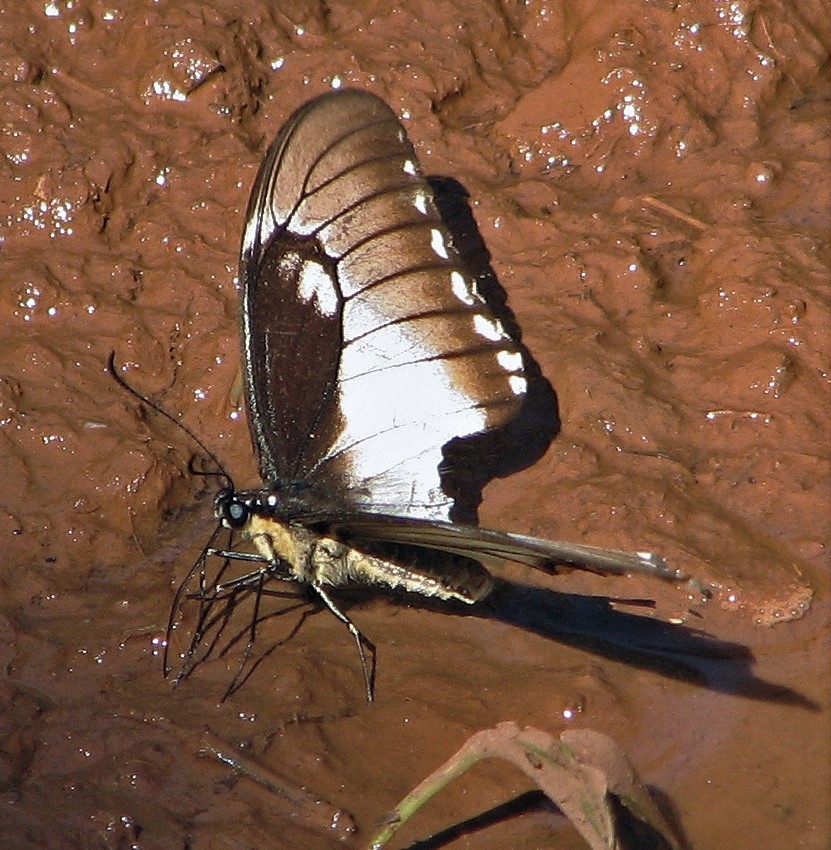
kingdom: Animalia
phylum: Arthropoda
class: Insecta
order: Lepidoptera
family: Papilionidae
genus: Papilio
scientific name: Papilio astyalus
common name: Astyalus swallowtail
